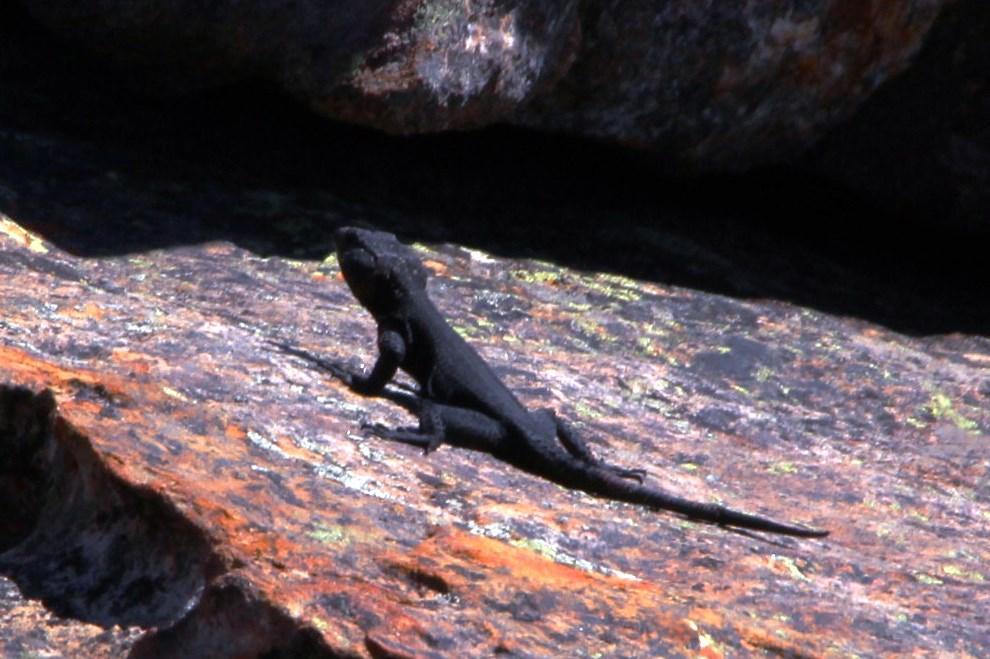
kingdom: Animalia
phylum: Chordata
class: Squamata
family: Cordylidae
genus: Hemicordylus
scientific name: Hemicordylus capensis
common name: Graceful crag lizard
